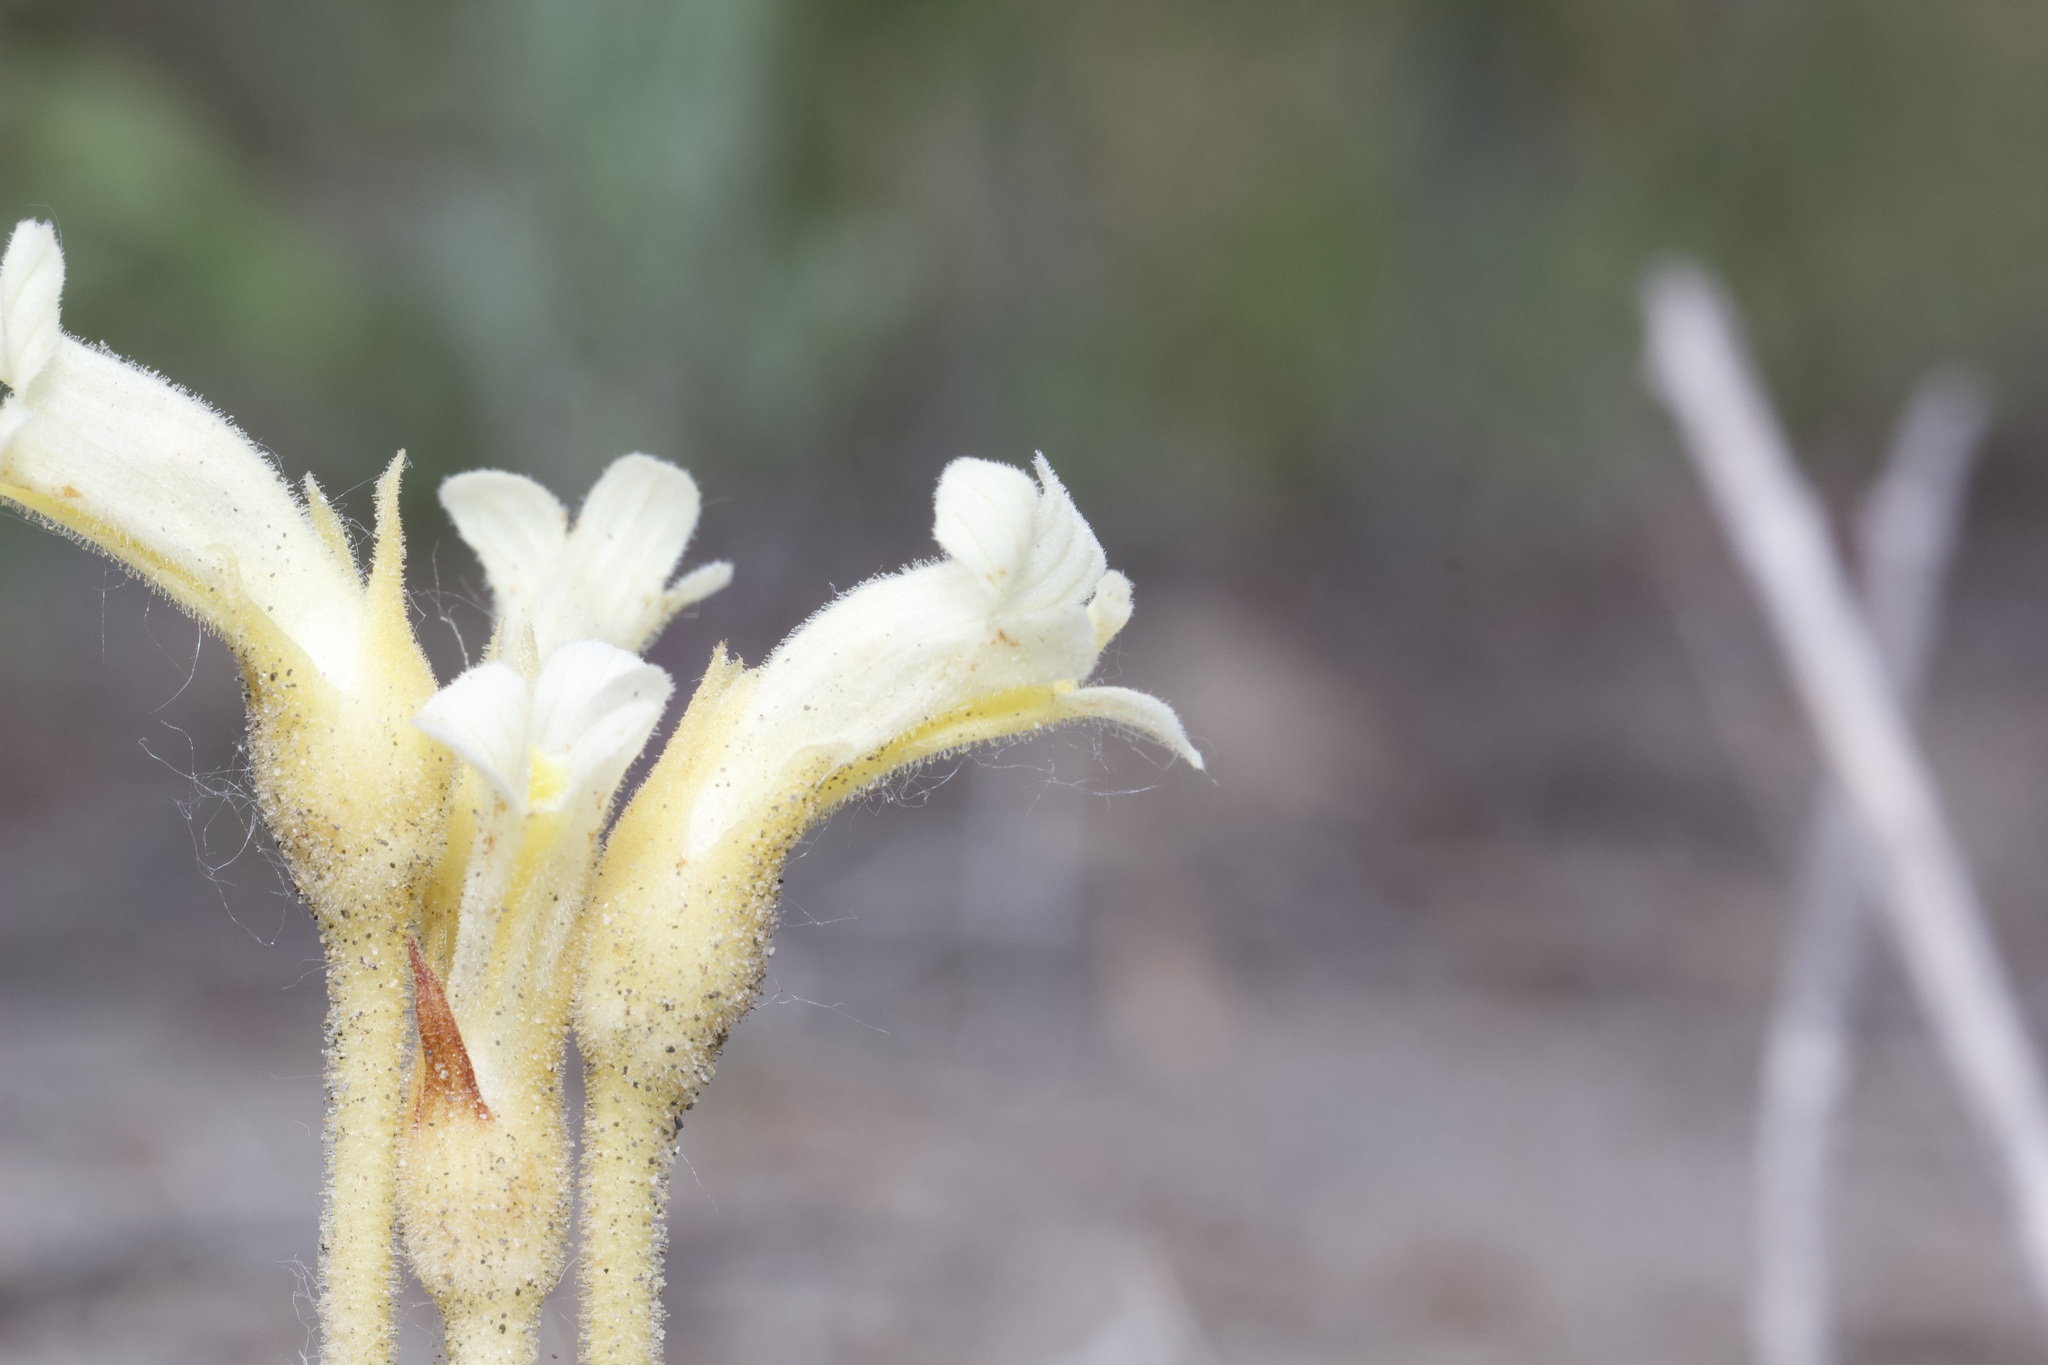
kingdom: Plantae
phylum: Tracheophyta
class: Magnoliopsida
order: Lamiales
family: Orobanchaceae
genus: Aphyllon
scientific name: Aphyllon fasciculatum
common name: Clustered broomrape
